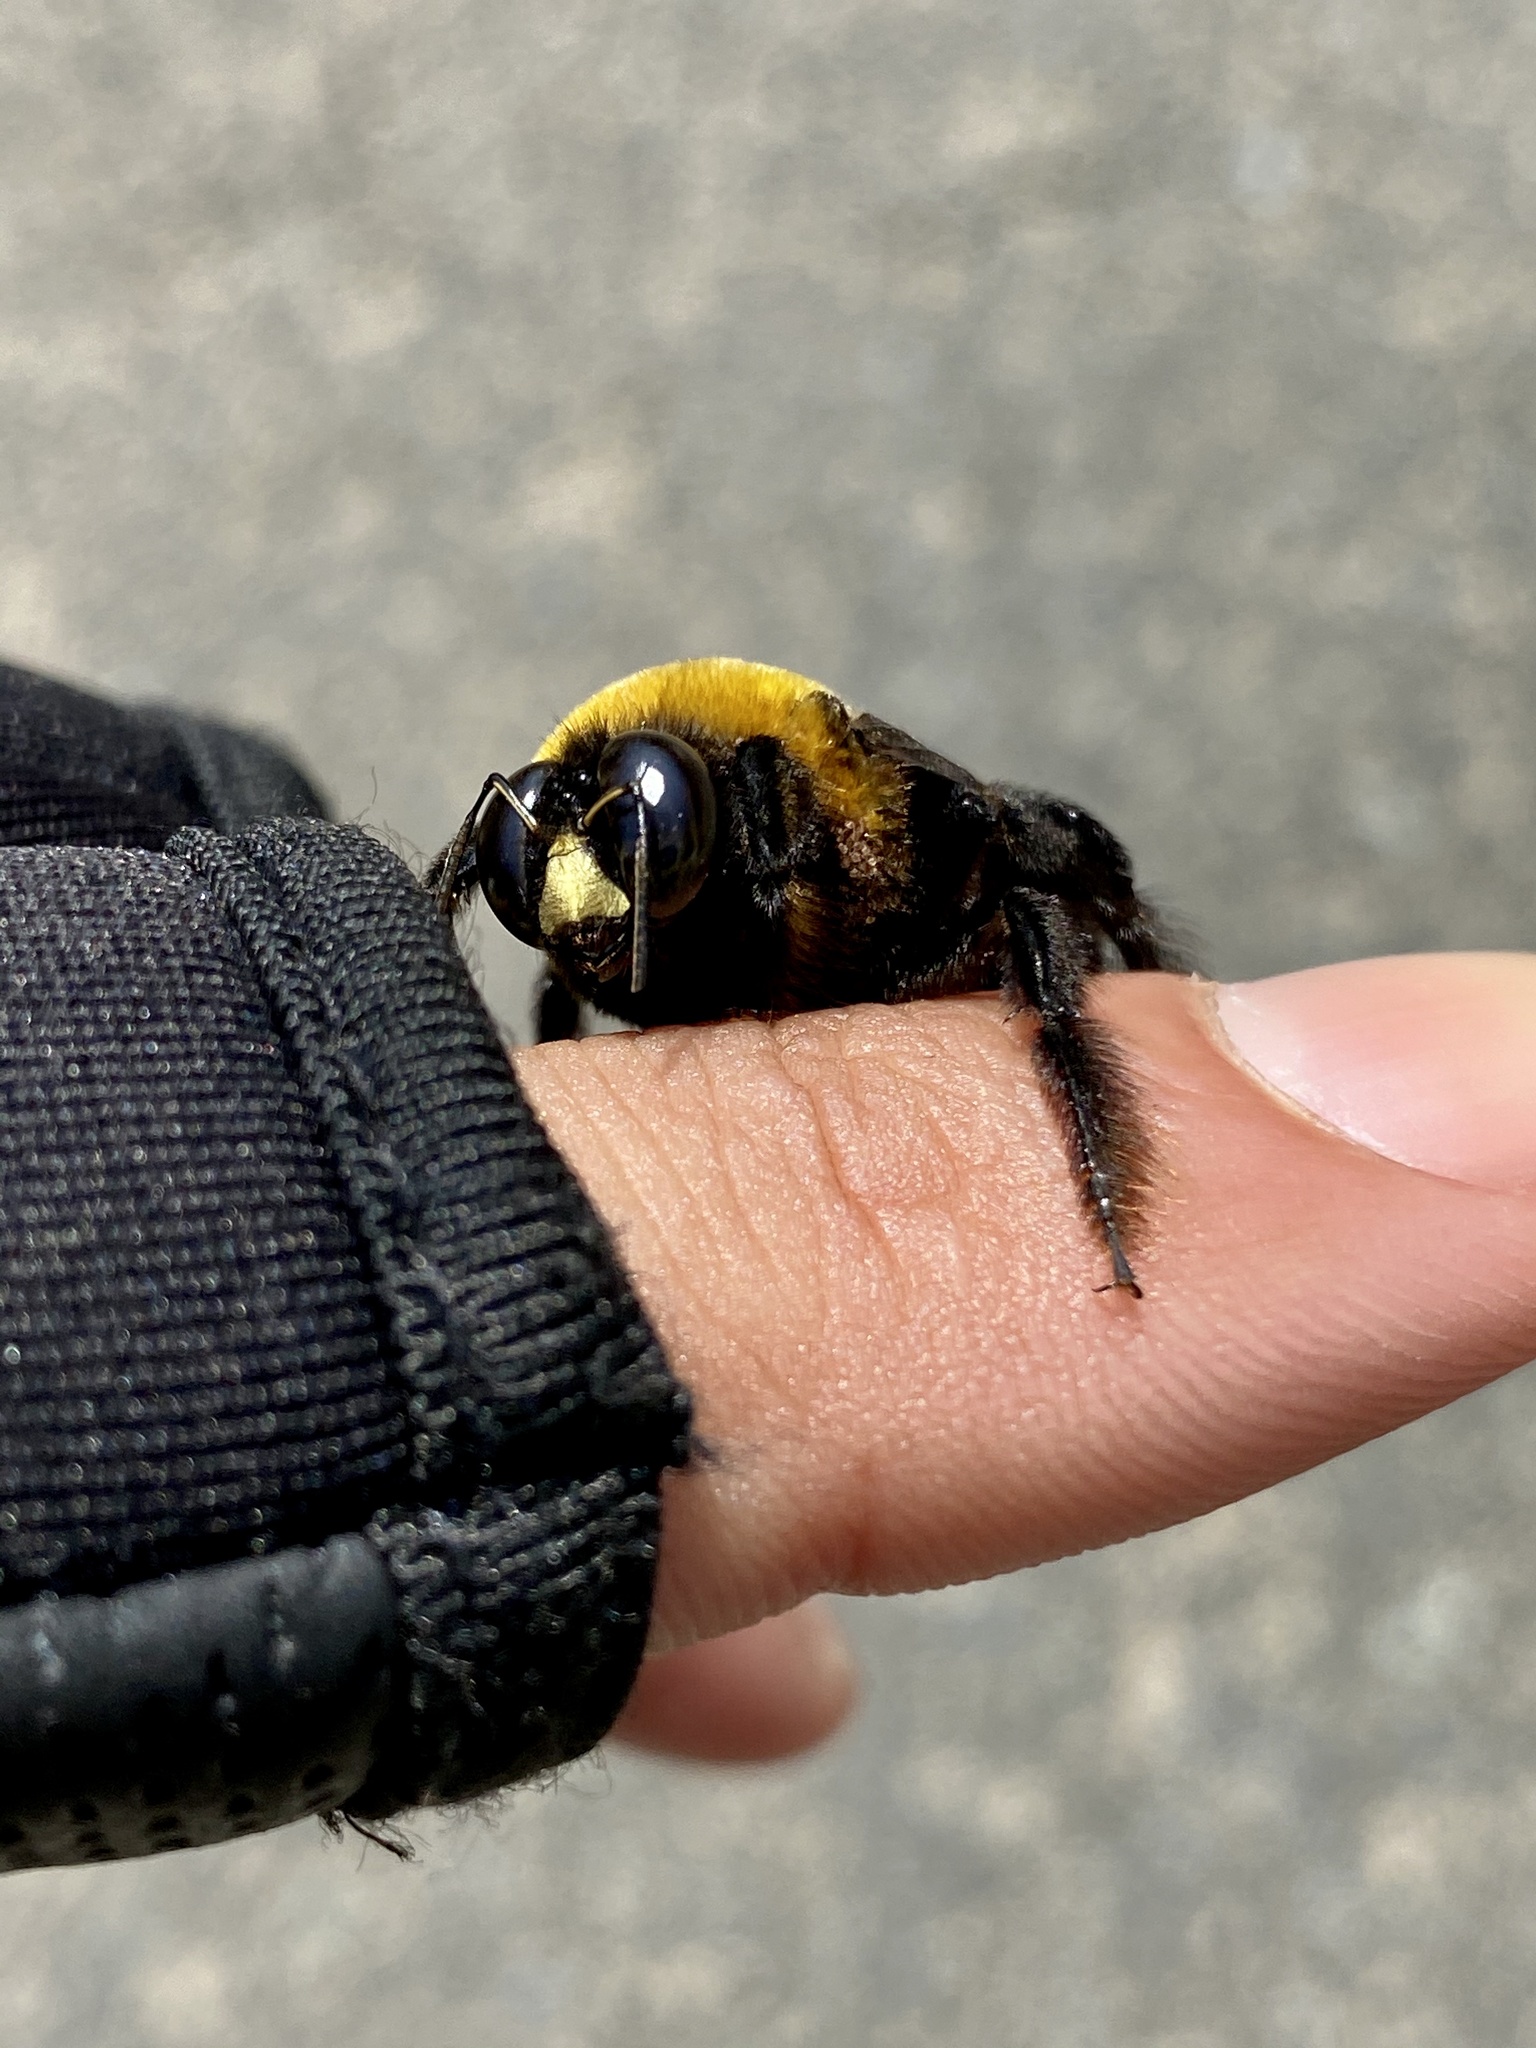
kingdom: Animalia
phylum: Arthropoda
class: Insecta
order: Hymenoptera
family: Apidae
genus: Xylocopa
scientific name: Xylocopa appendiculata
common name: Japanese carpenter bee
